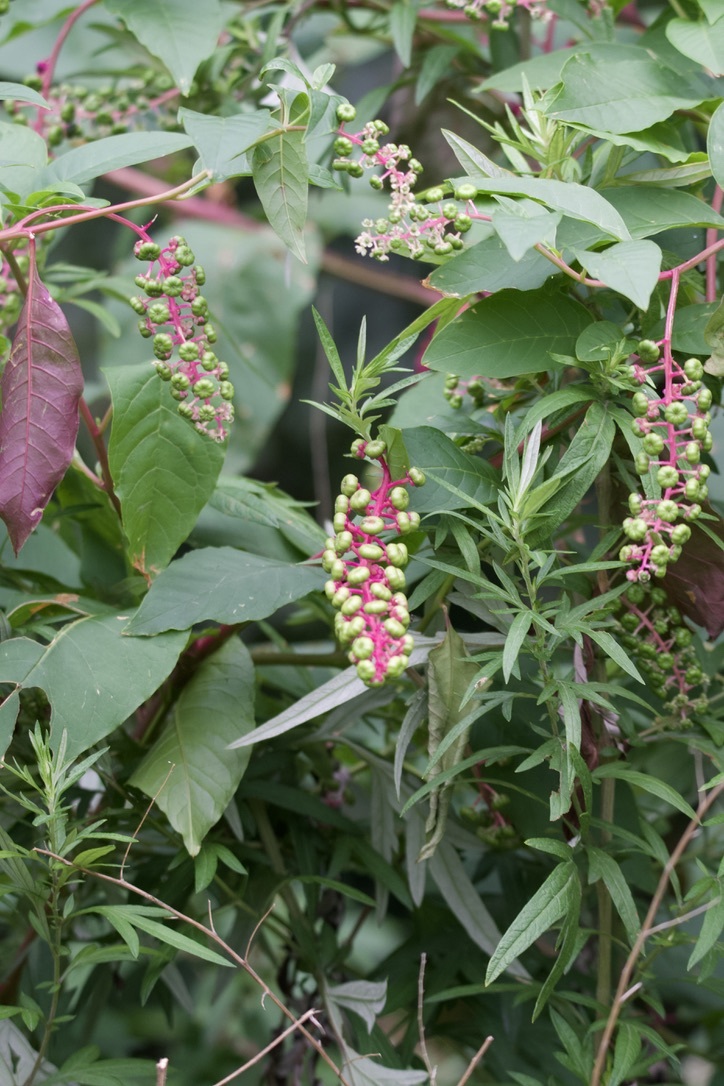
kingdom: Plantae
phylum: Tracheophyta
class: Magnoliopsida
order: Caryophyllales
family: Phytolaccaceae
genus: Phytolacca
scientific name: Phytolacca americana
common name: American pokeweed
